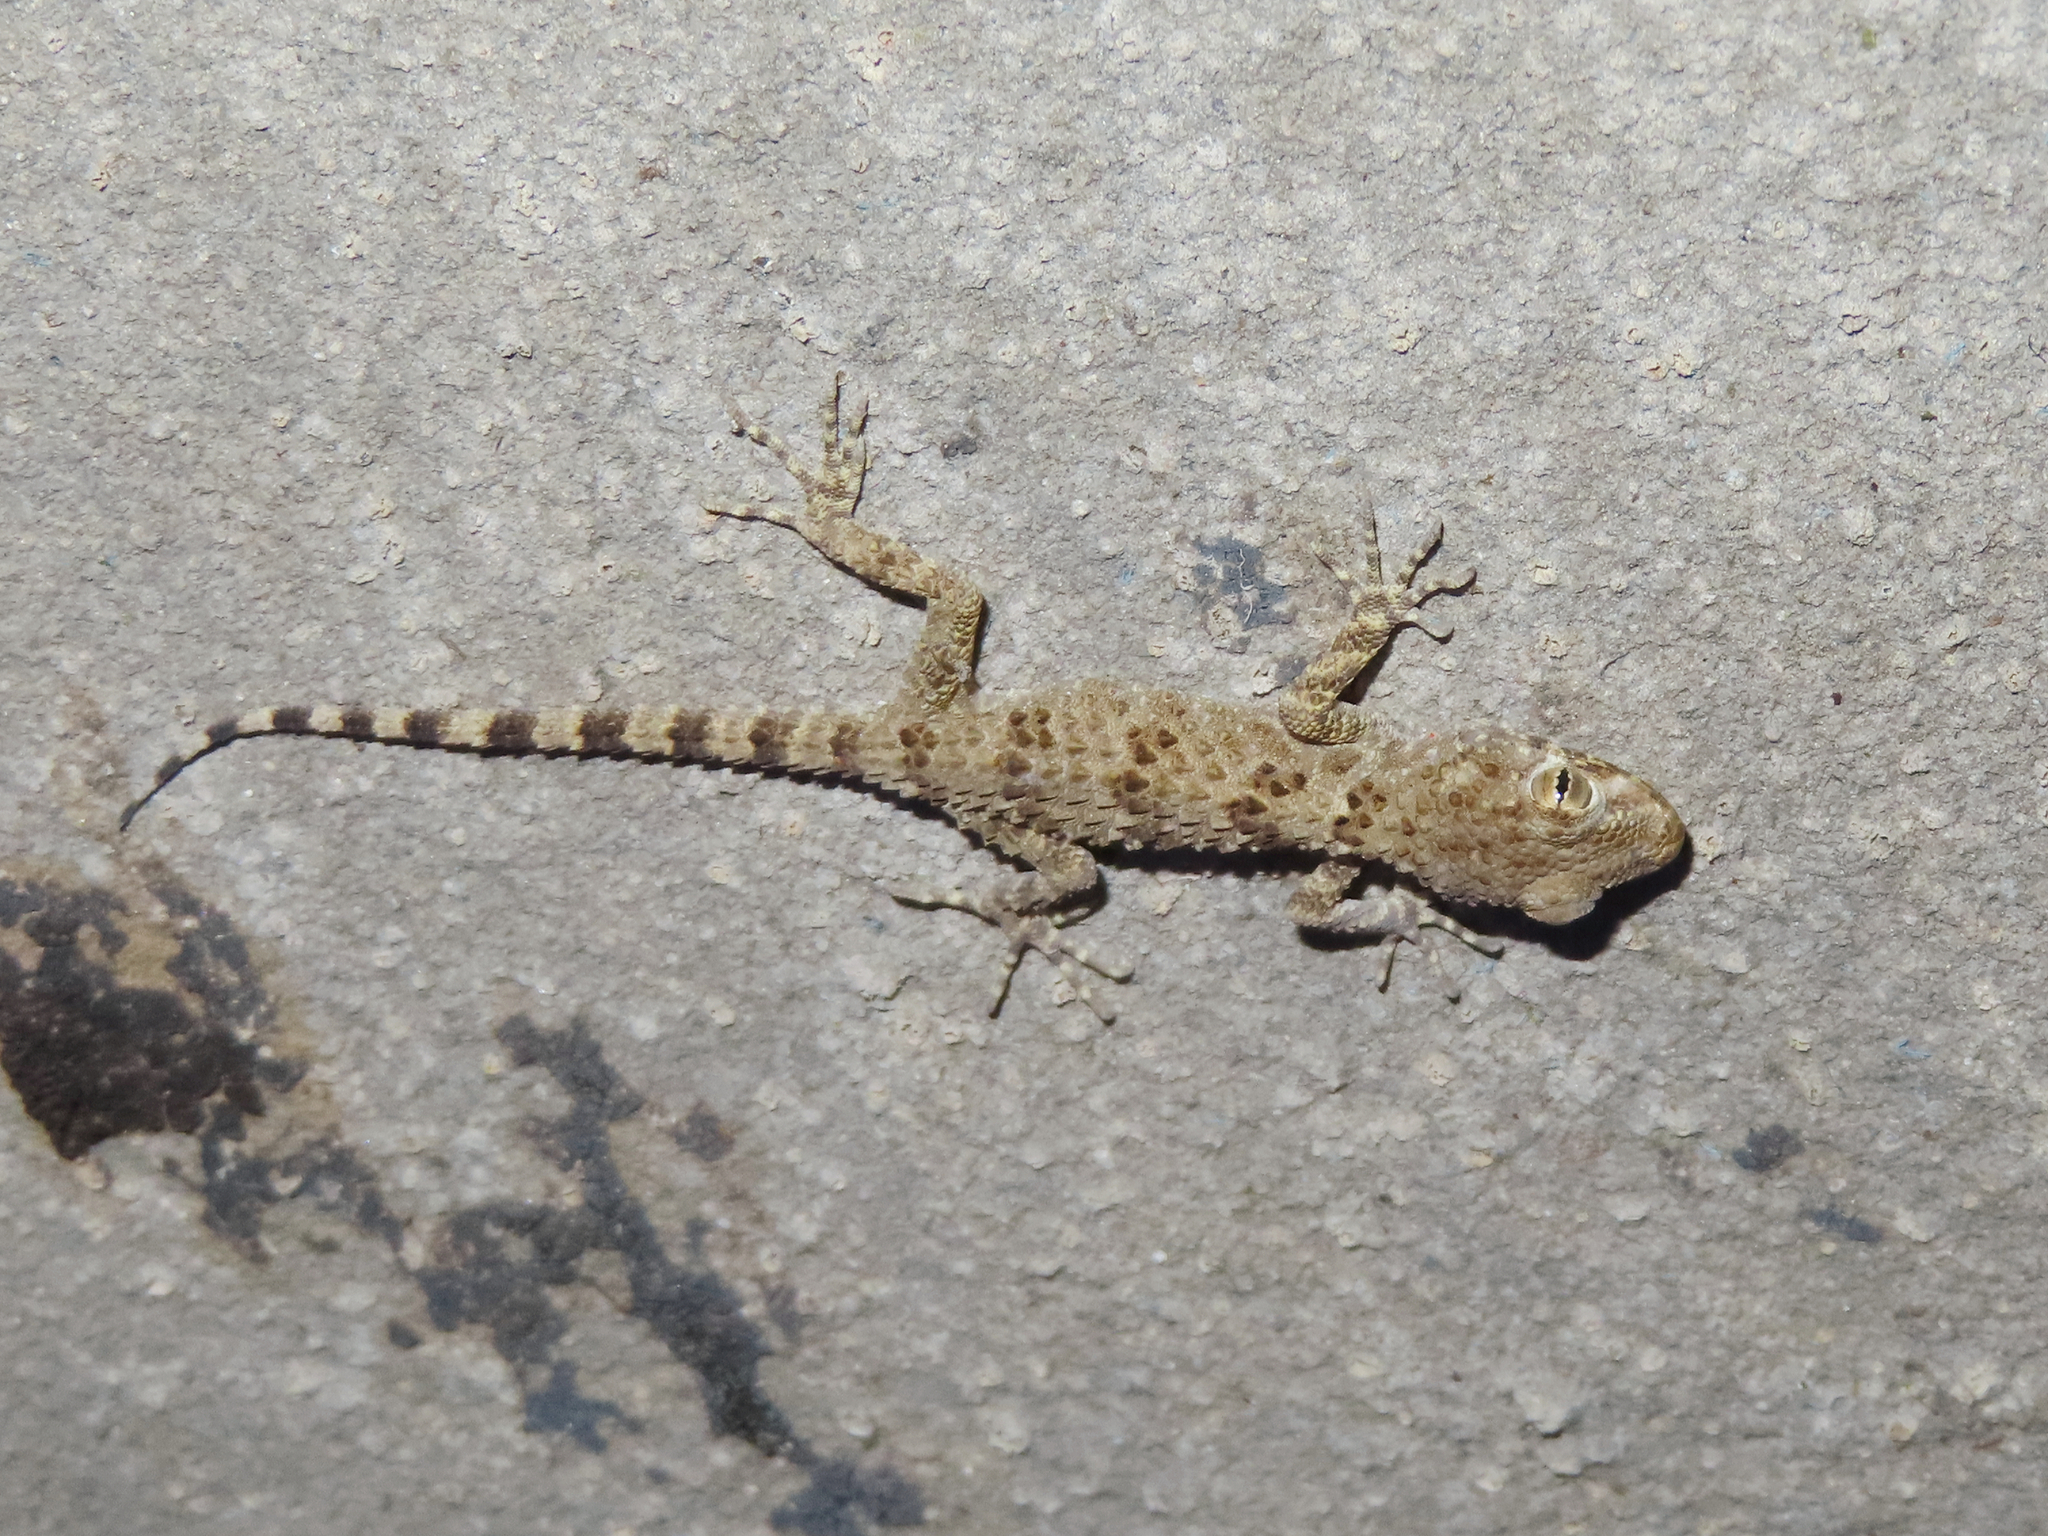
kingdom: Animalia
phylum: Chordata
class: Squamata
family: Gekkonidae
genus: Tenuidactylus
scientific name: Tenuidactylus caspius
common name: Caspian bent-toed gecko
